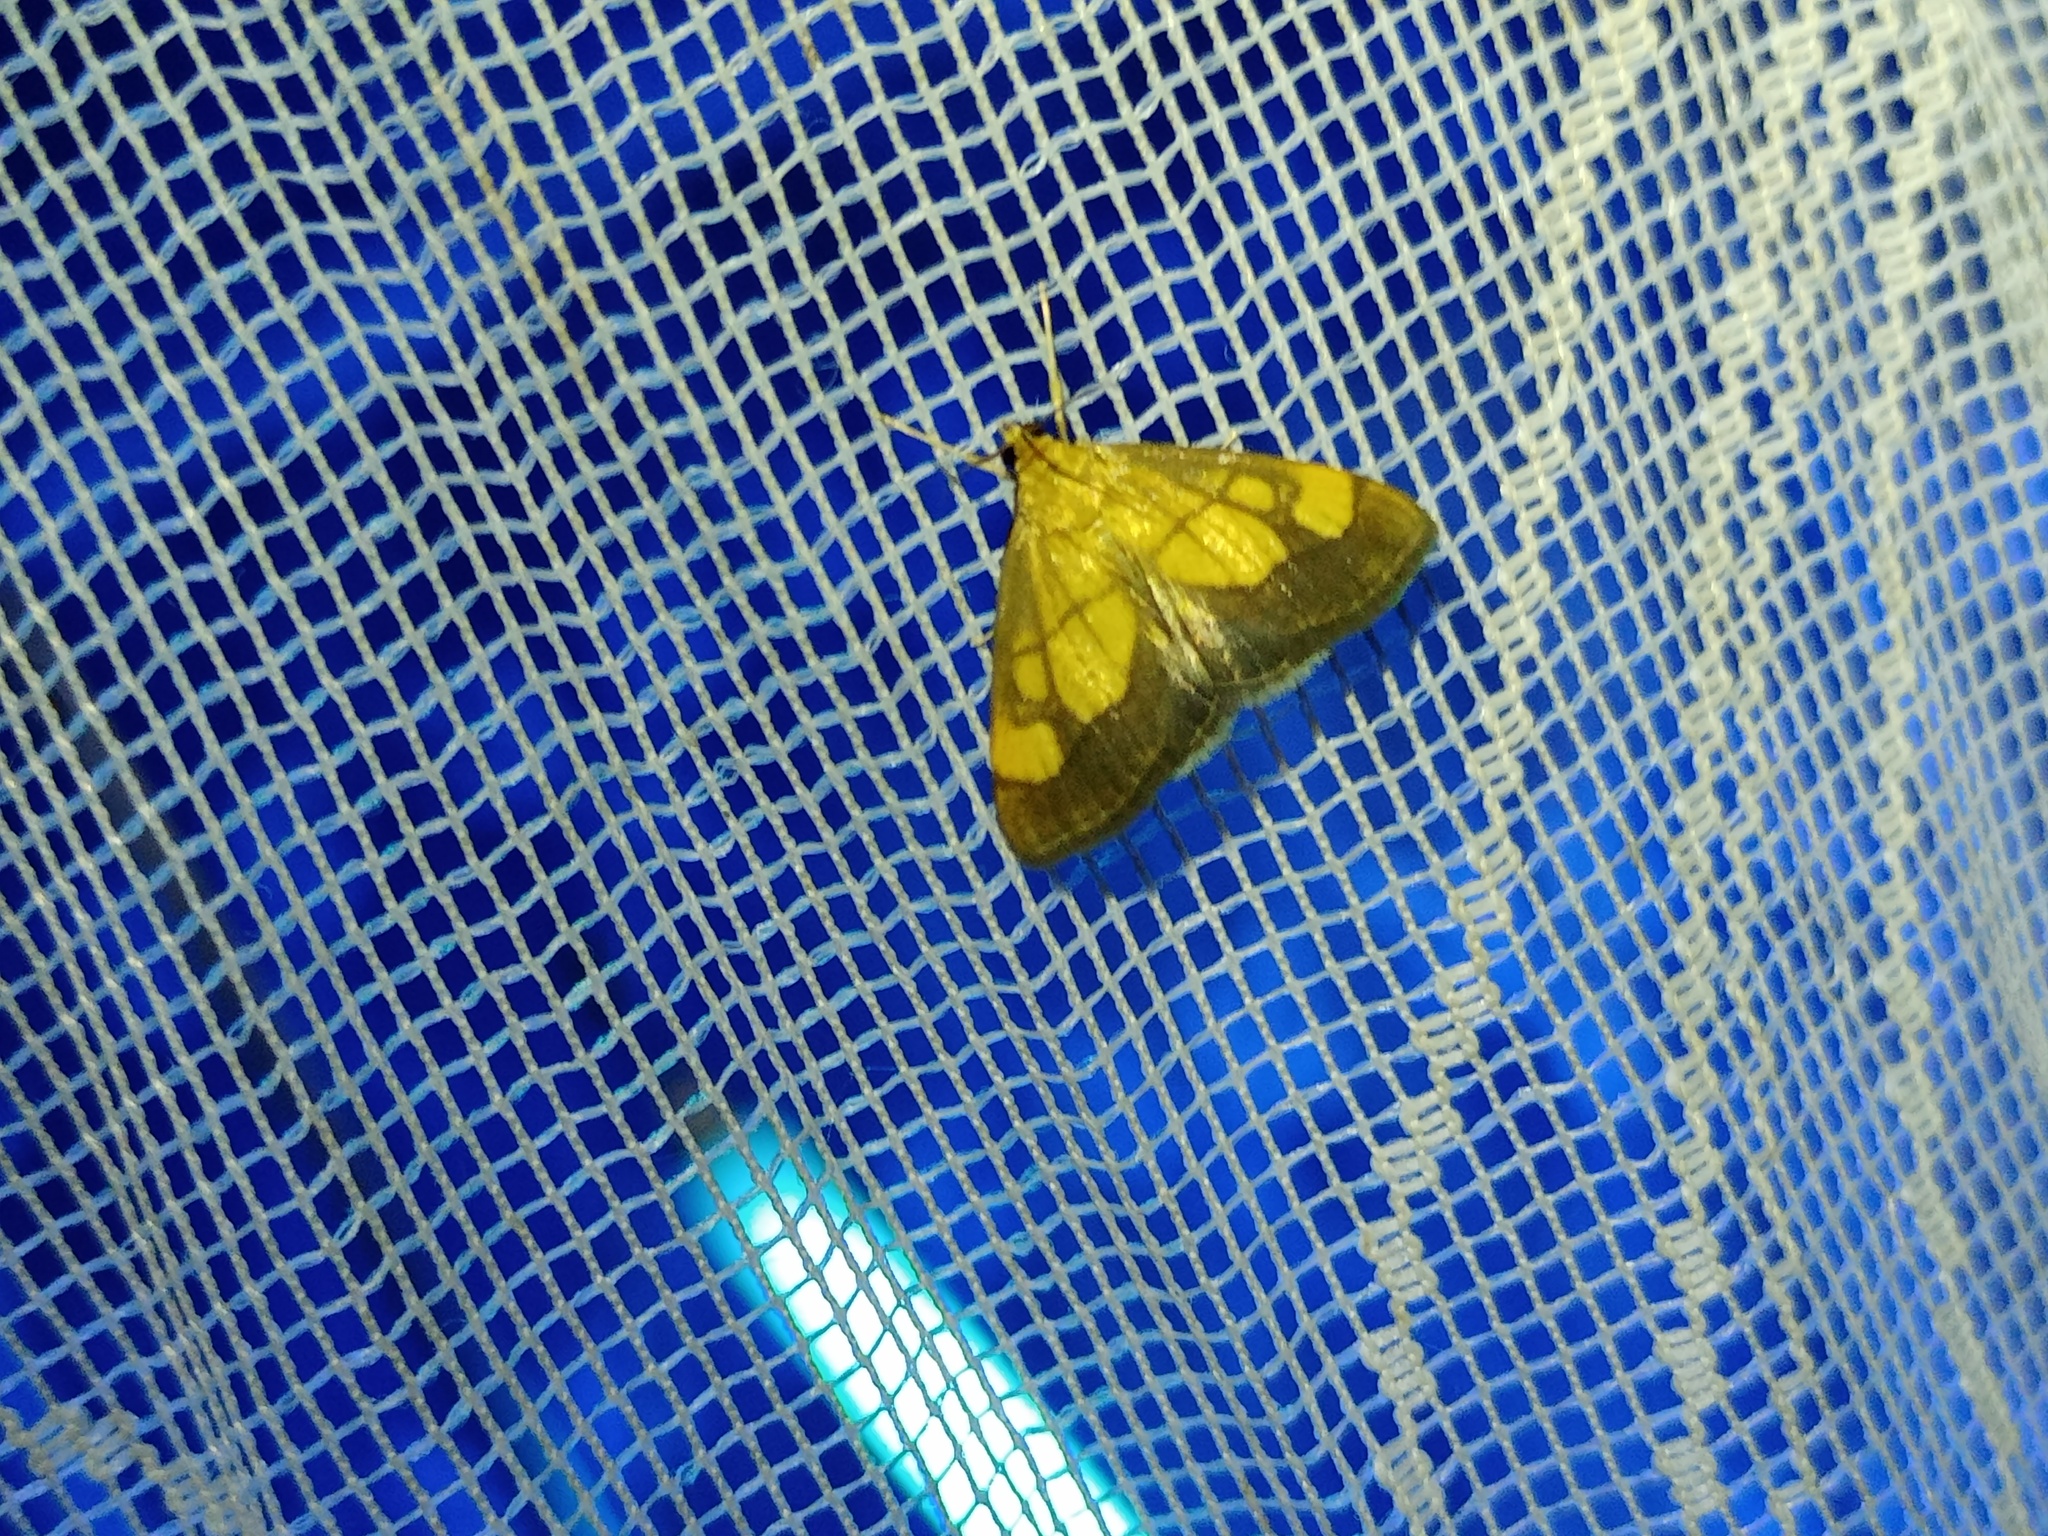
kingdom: Animalia
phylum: Arthropoda
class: Insecta
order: Lepidoptera
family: Crambidae
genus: Evergestis
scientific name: Evergestis limbata
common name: Dark bordered pearl
